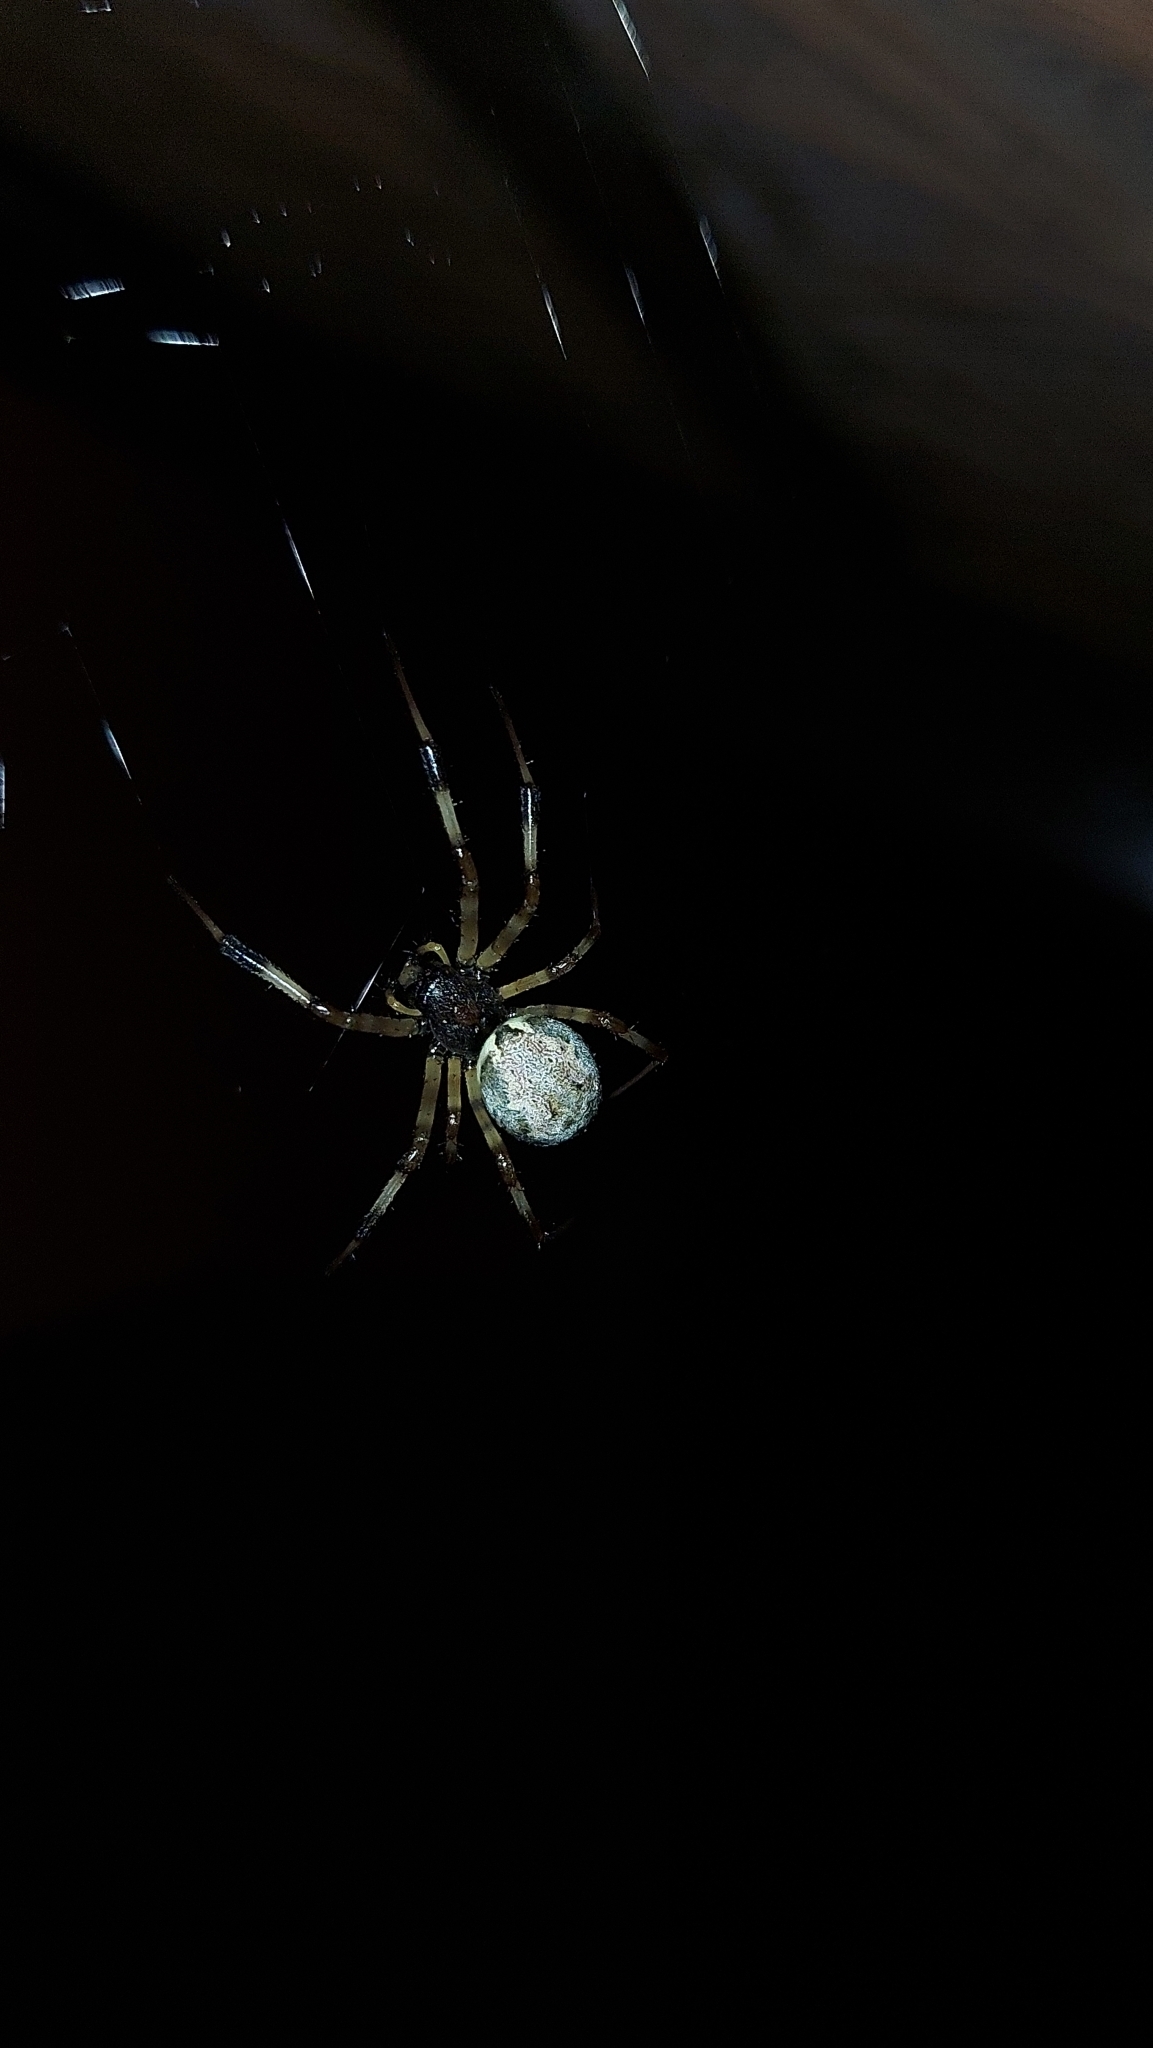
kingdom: Animalia
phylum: Arthropoda
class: Arachnida
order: Araneae
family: Araneidae
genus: Nephilengys
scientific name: Nephilengys malabarensis
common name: Asian hermit spider
